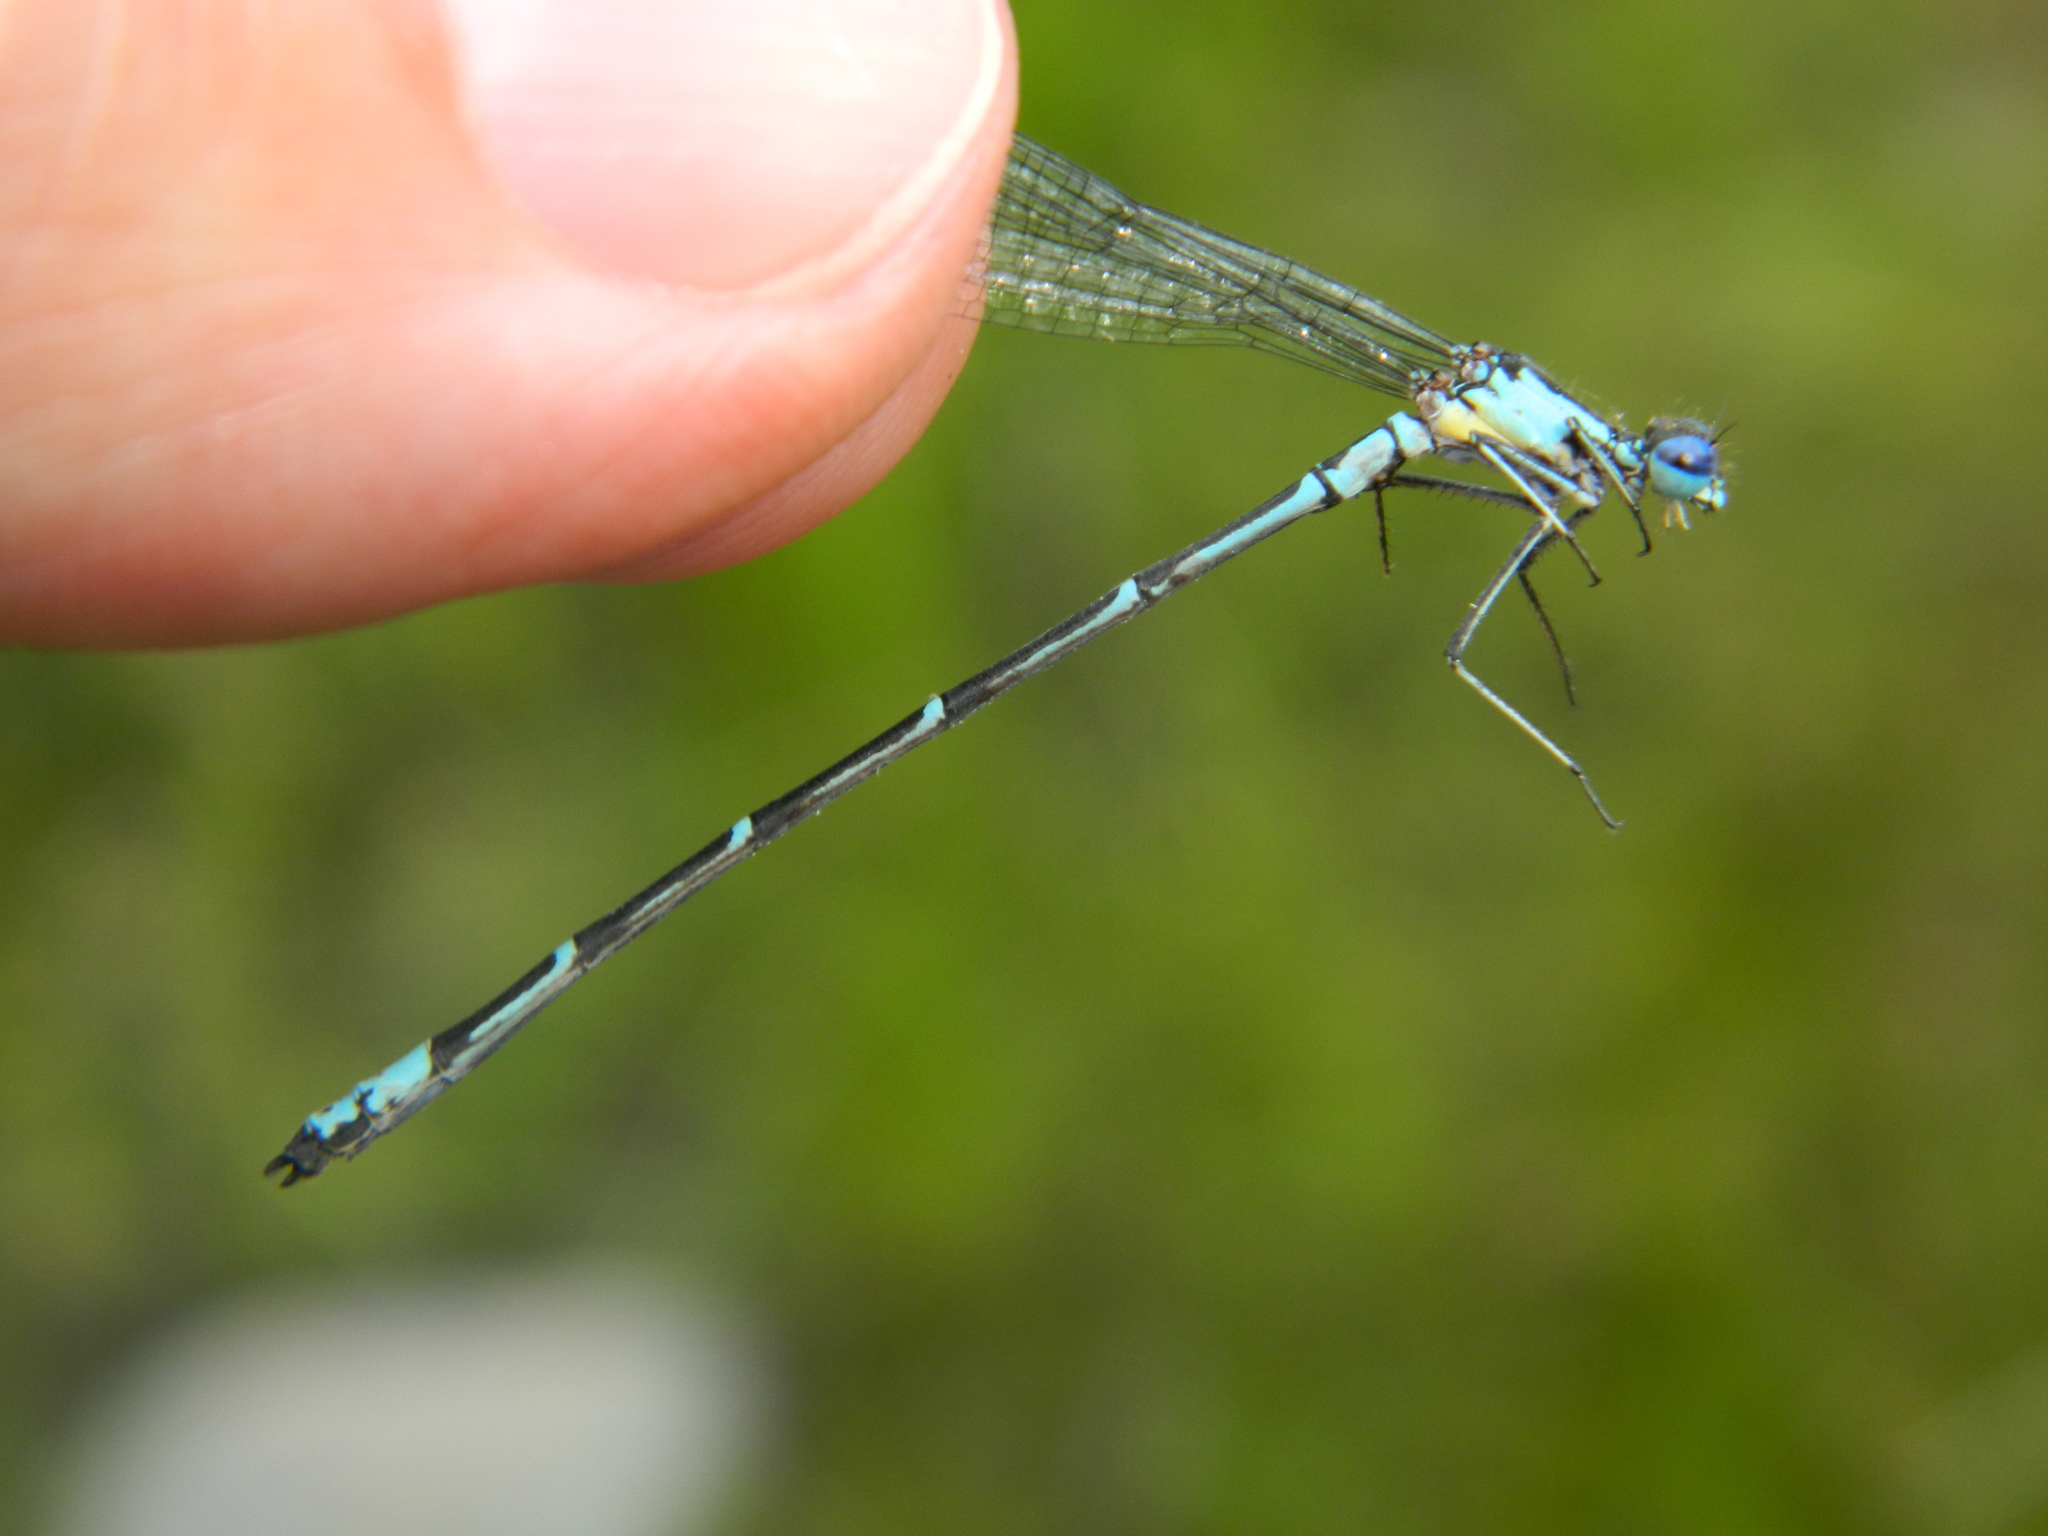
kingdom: Animalia
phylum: Arthropoda
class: Insecta
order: Odonata
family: Coenagrionidae
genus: Chromagrion
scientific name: Chromagrion conditum
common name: Aurora damsel
